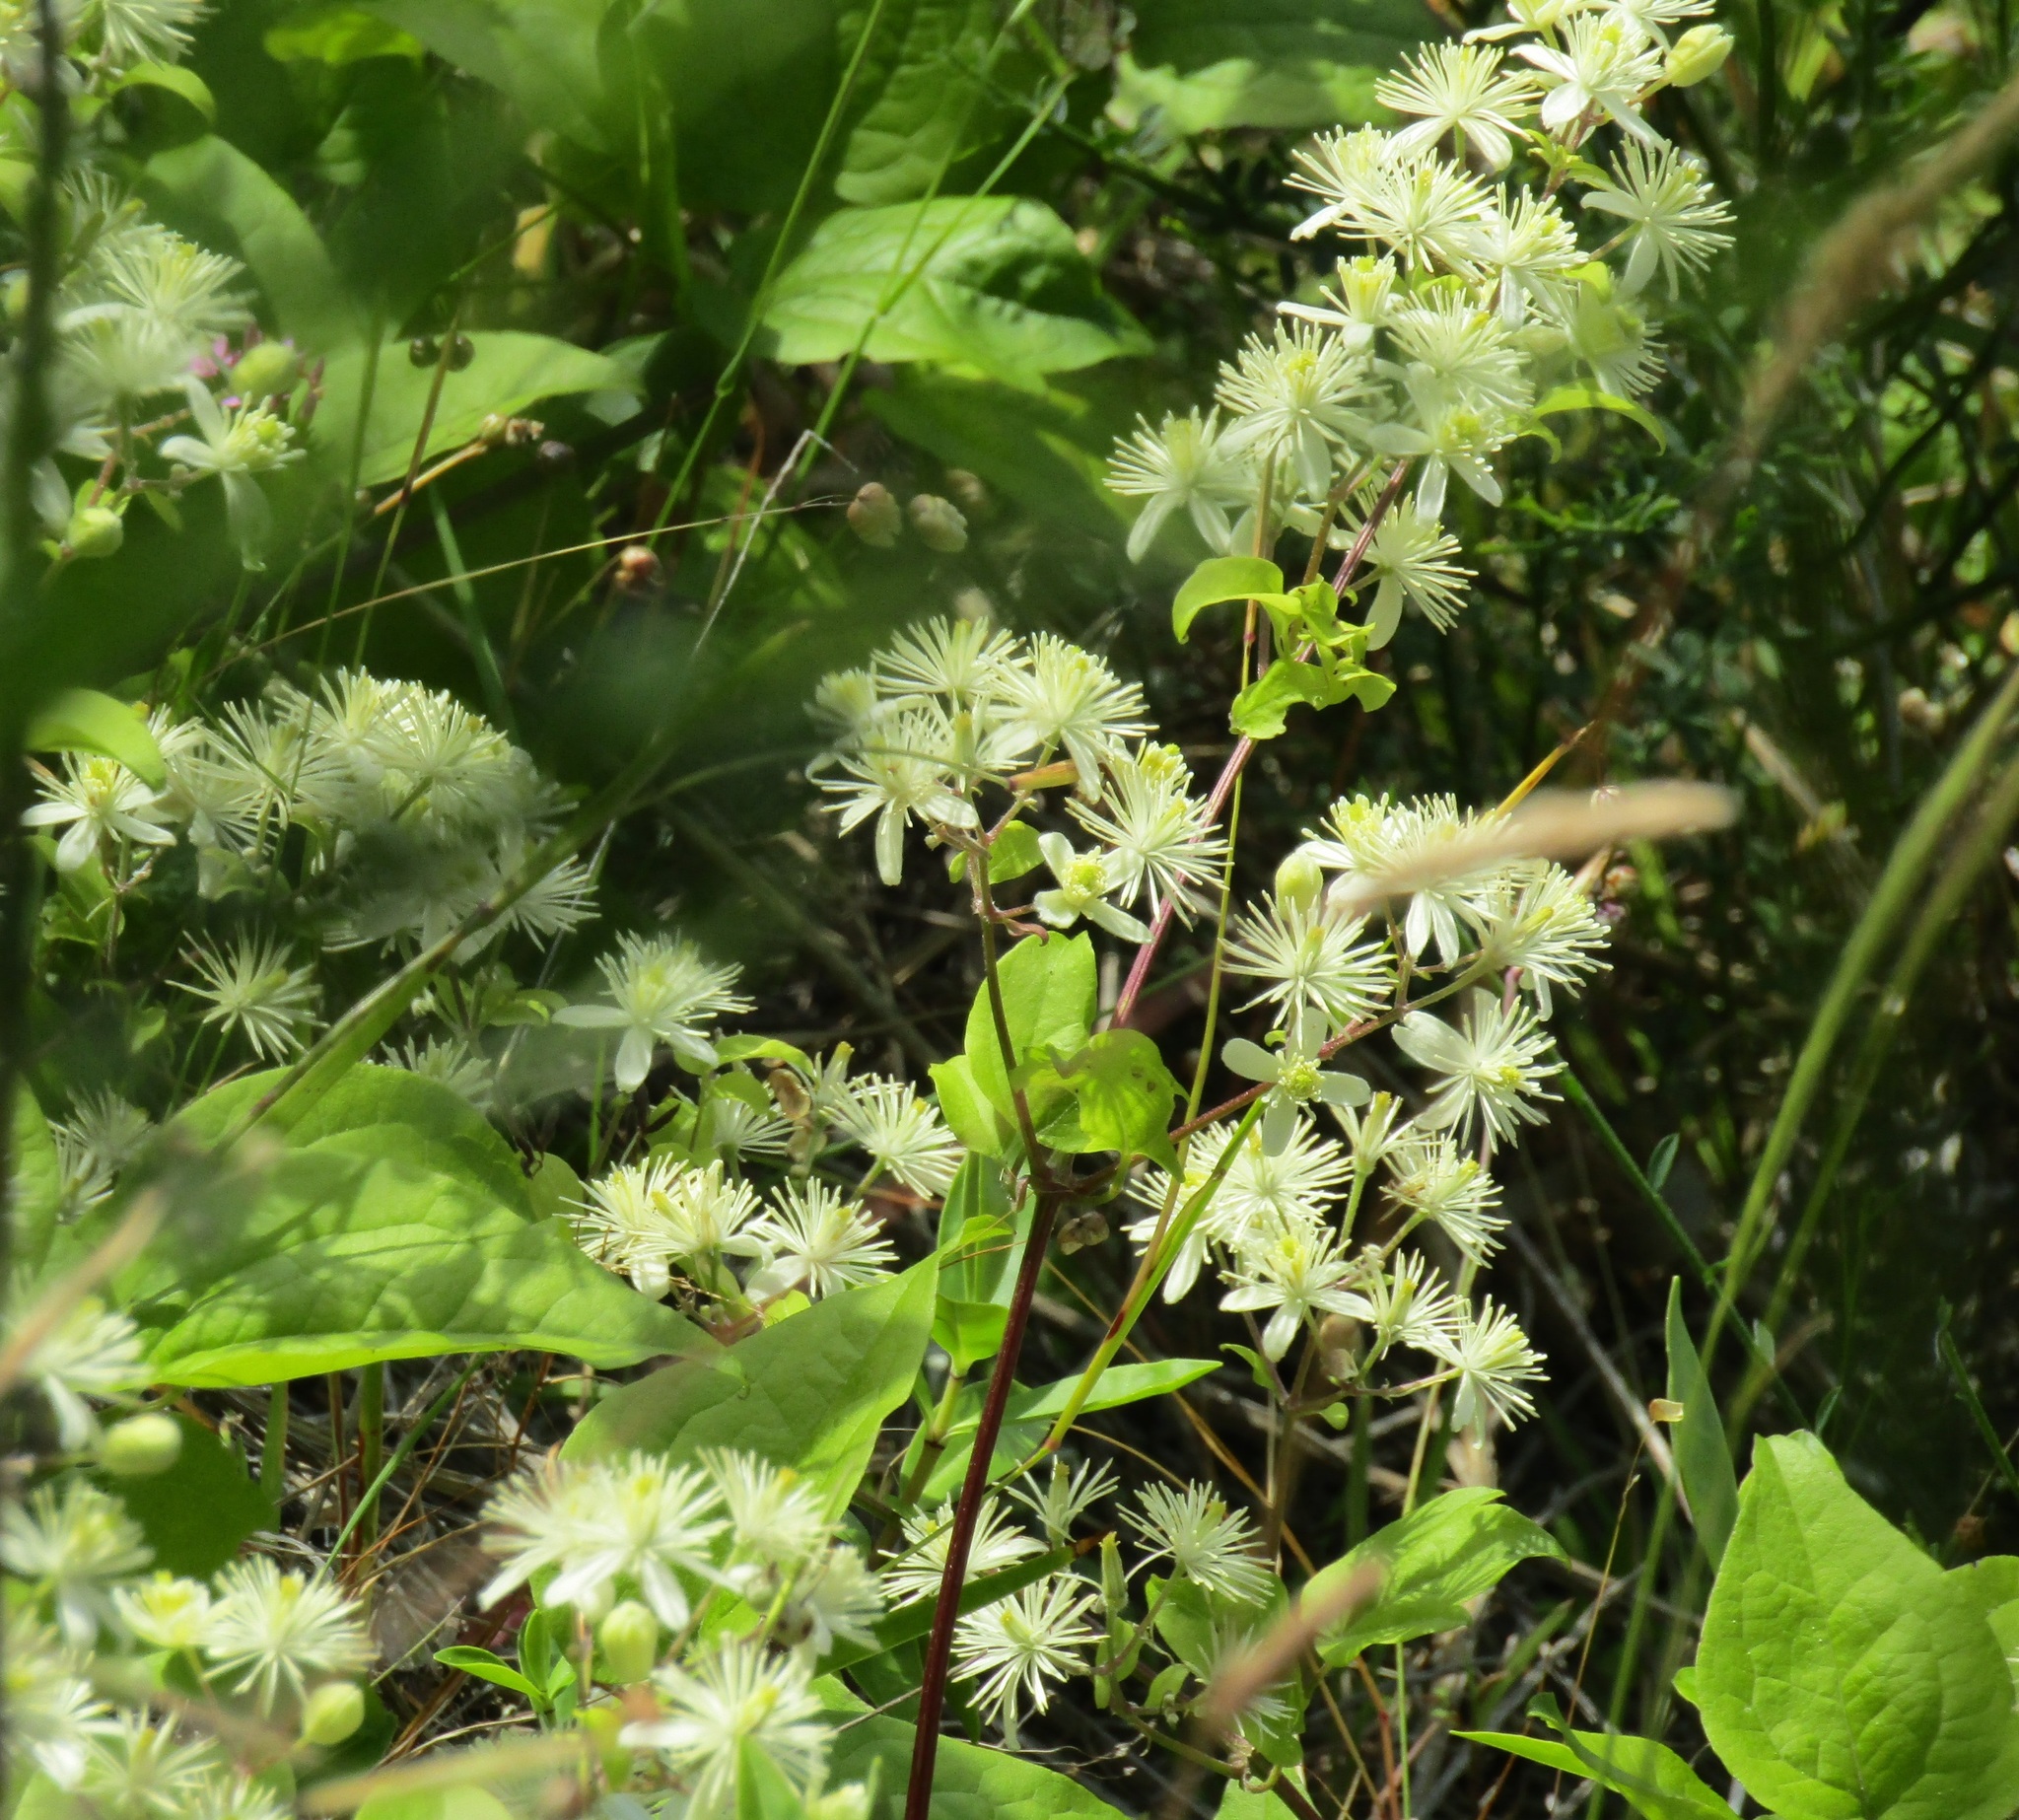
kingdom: Plantae
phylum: Tracheophyta
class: Magnoliopsida
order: Ranunculales
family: Ranunculaceae
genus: Clematis
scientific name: Clematis vitalba
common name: Evergreen clematis
